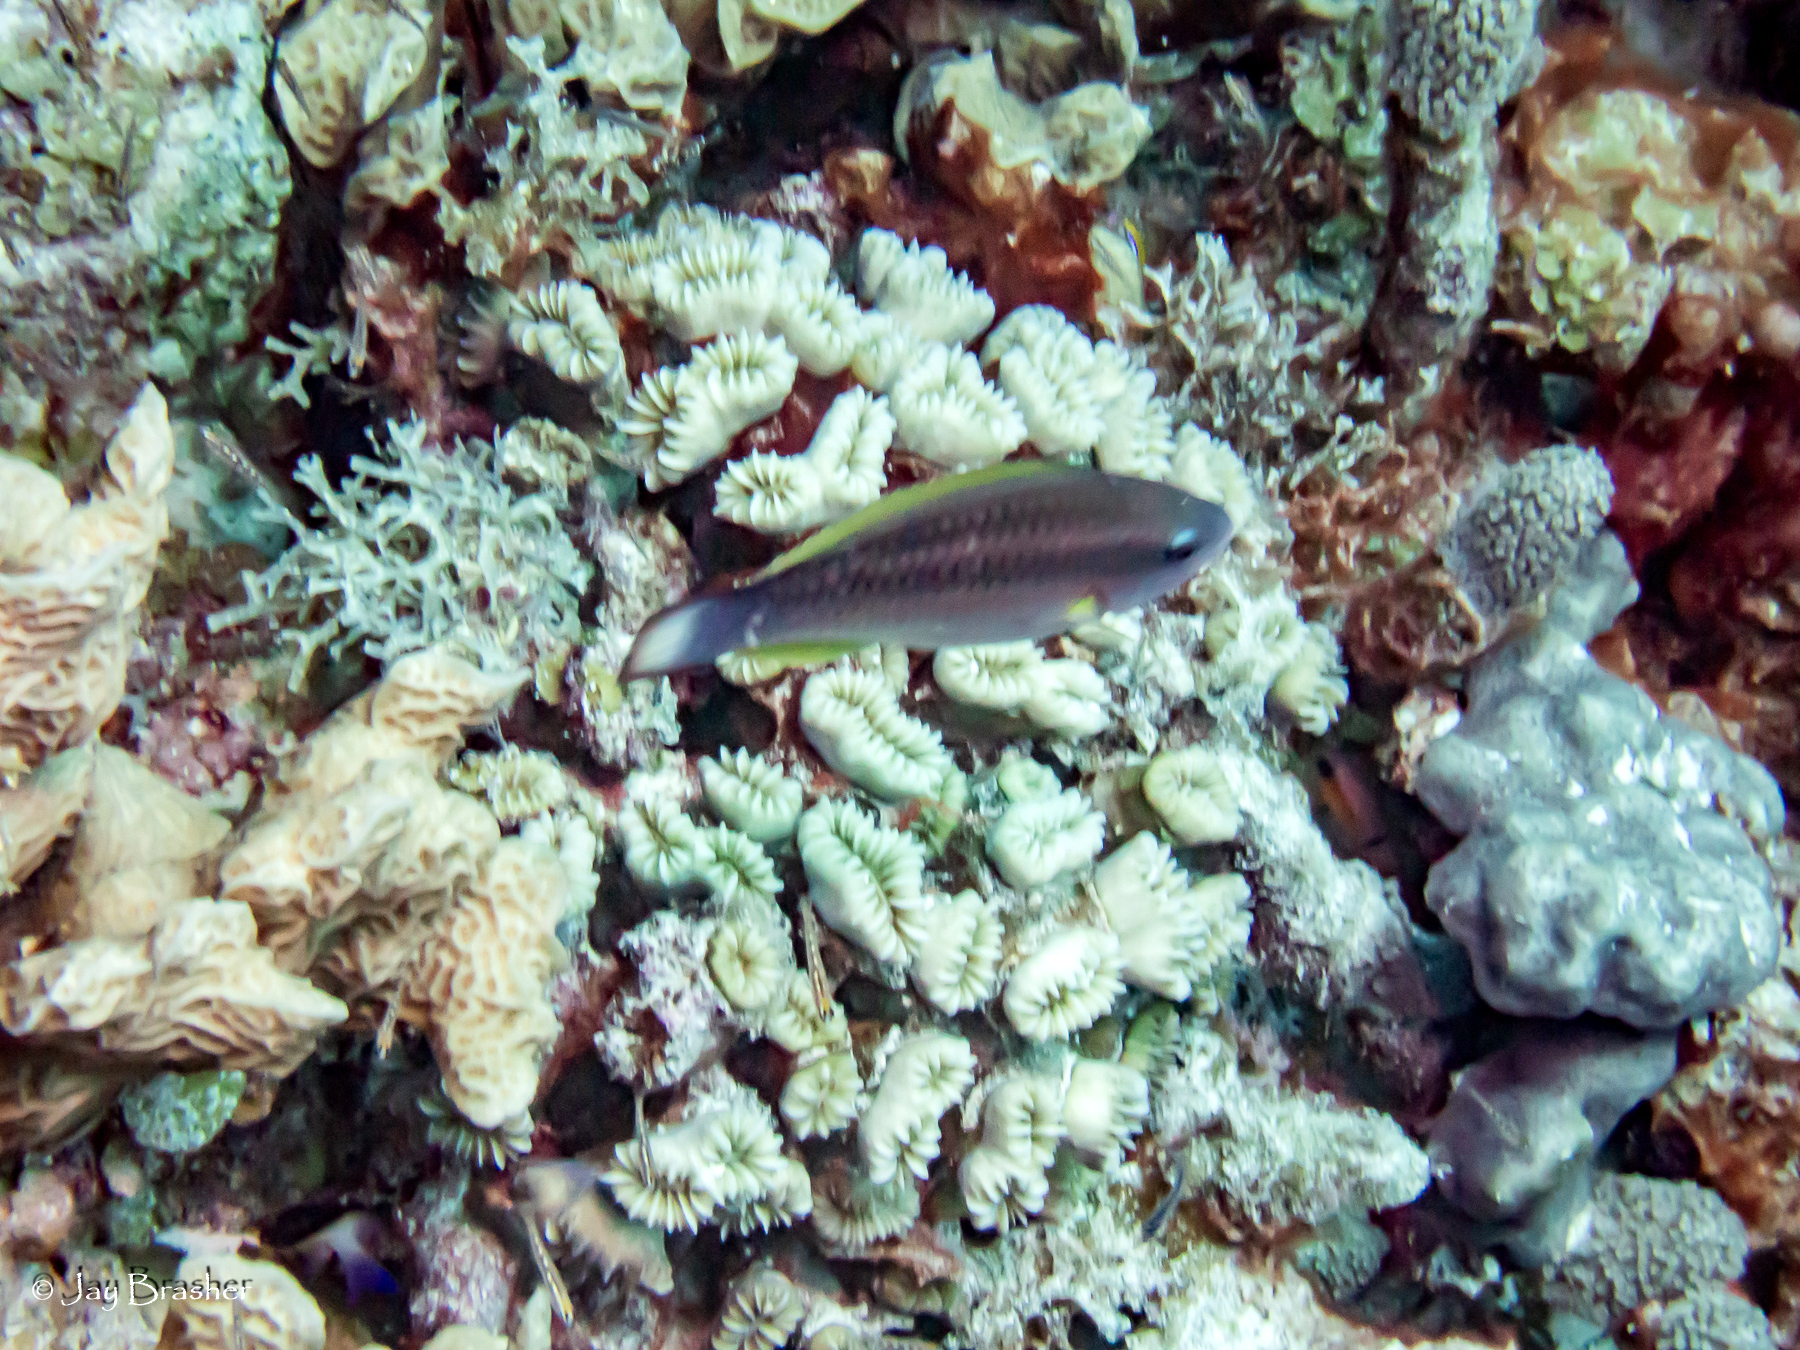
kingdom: Animalia
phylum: Cnidaria
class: Anthozoa
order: Scleractinia
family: Agariciidae
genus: Agaricia
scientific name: Agaricia agaricites
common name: Lettuce coral
